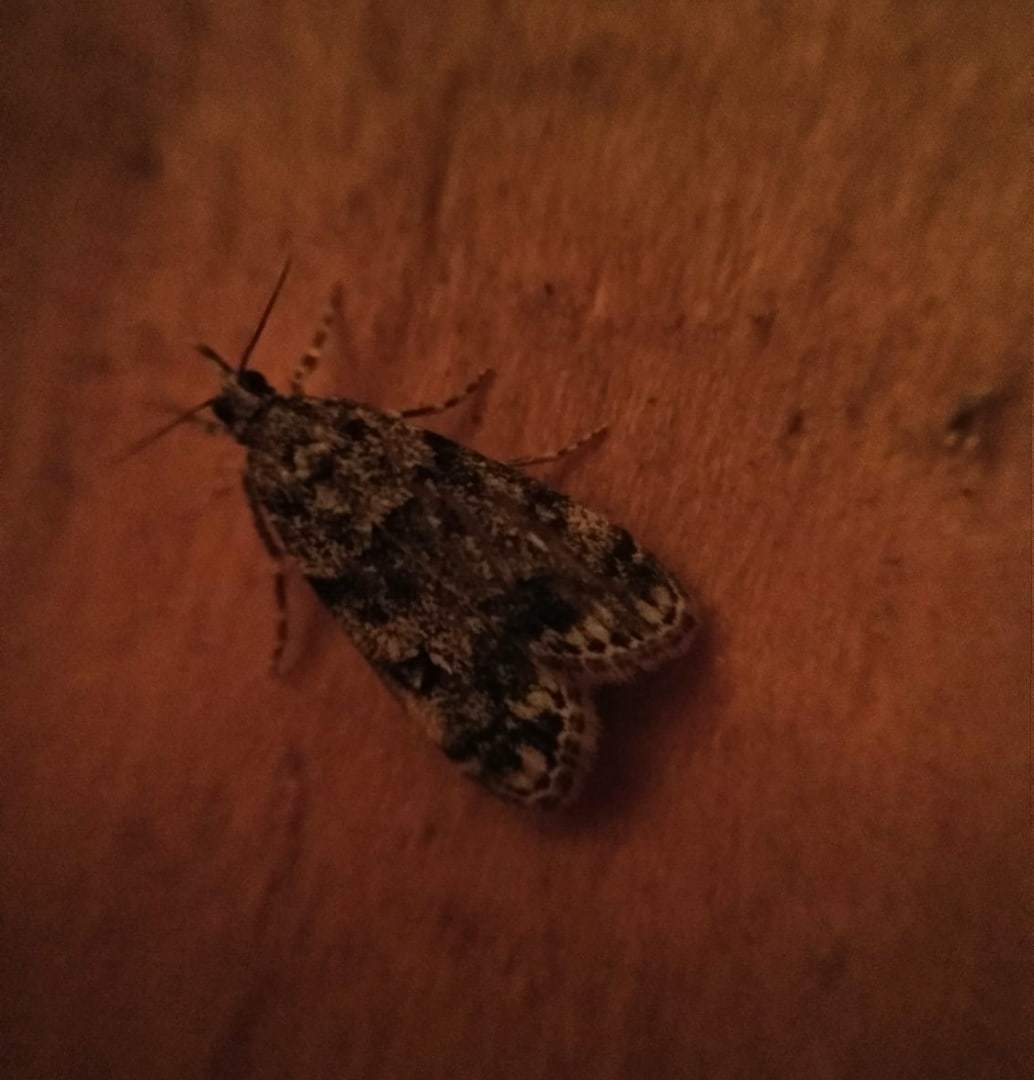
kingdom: Animalia
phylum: Arthropoda
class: Insecta
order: Lepidoptera
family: Crambidae
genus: Eudonia
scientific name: Eudonia lacustrata
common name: Little grey
